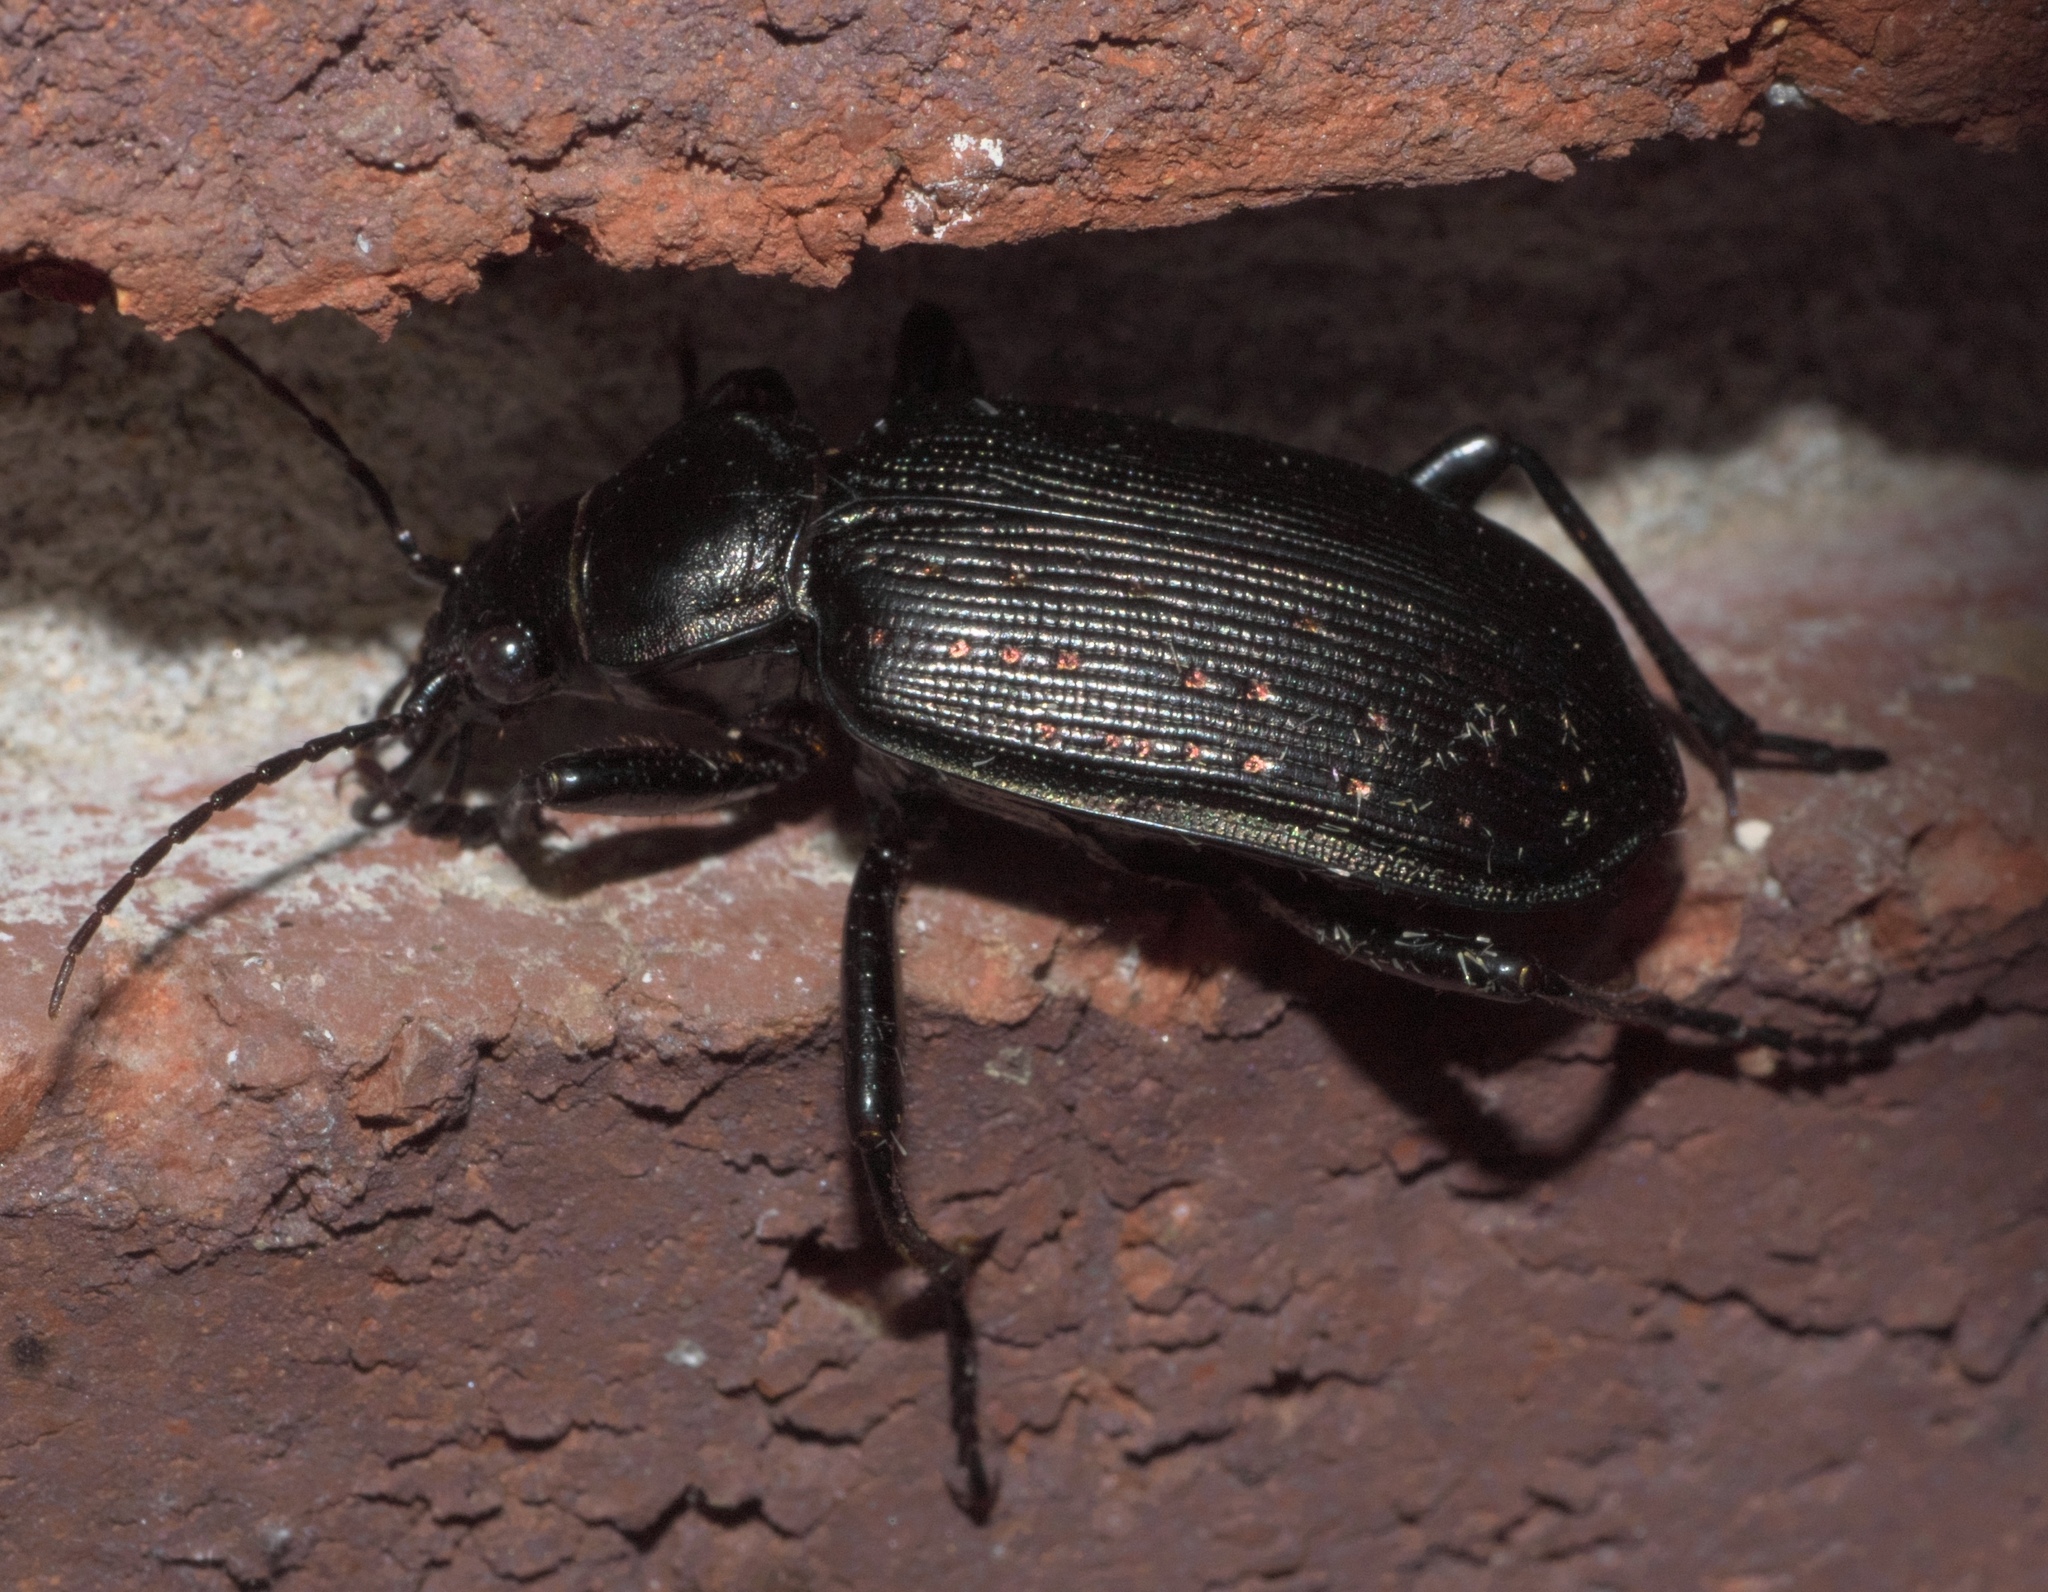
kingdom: Animalia
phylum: Arthropoda
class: Insecta
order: Coleoptera
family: Carabidae
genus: Calosoma
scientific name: Calosoma sayi
